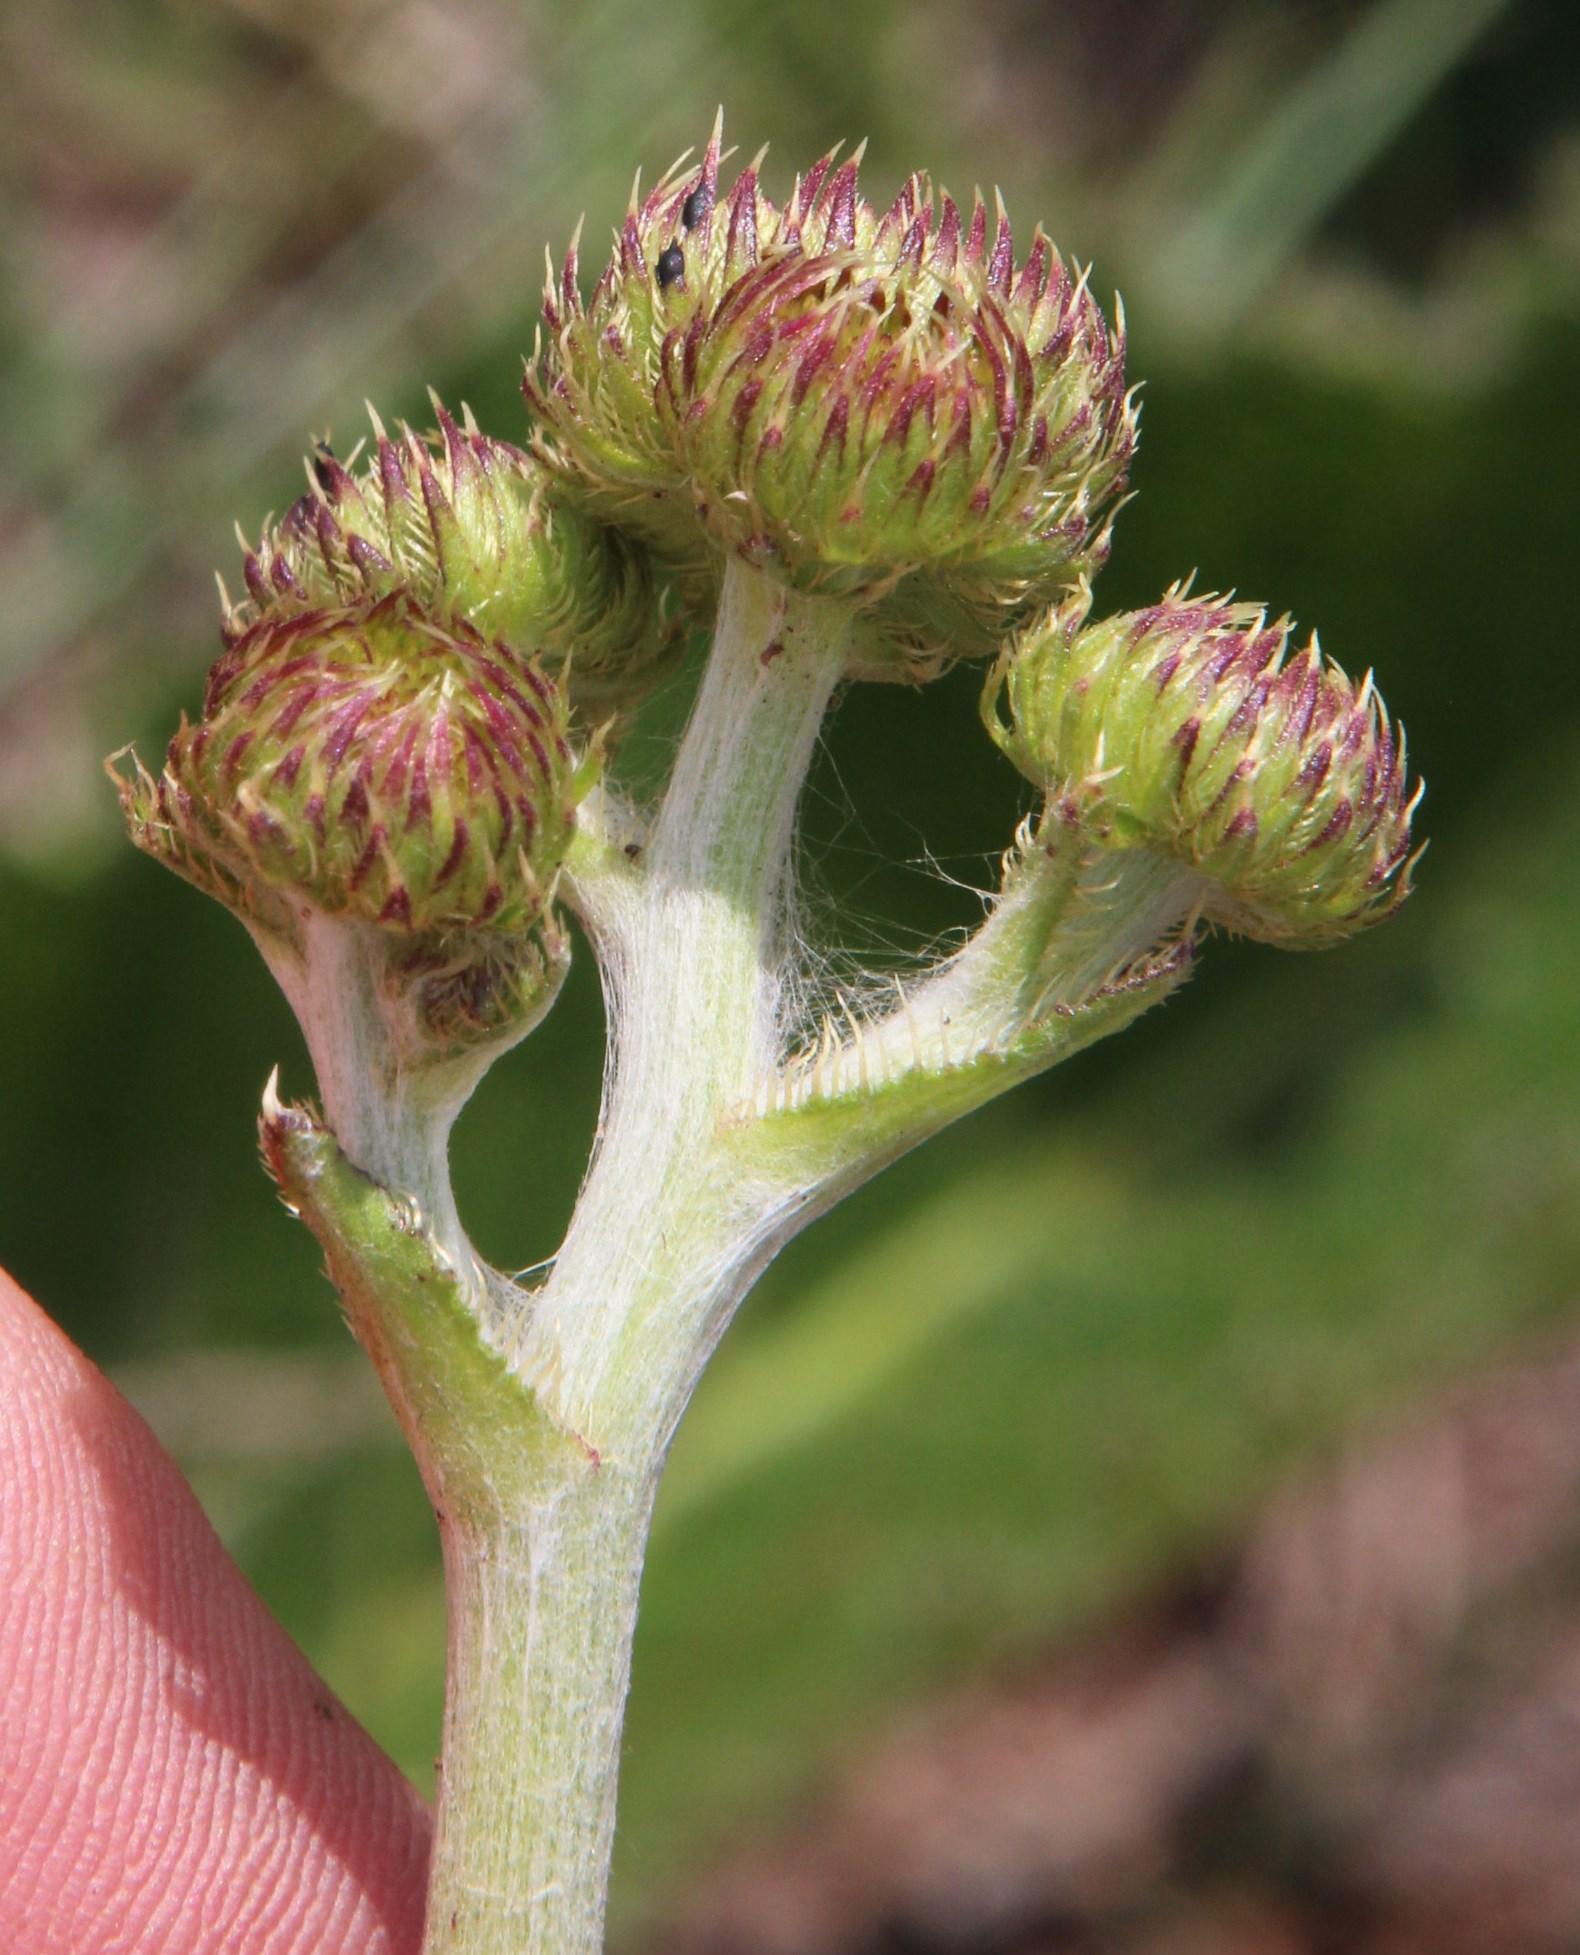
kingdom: Plantae
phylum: Tracheophyta
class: Magnoliopsida
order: Asterales
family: Asteraceae
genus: Berkheya
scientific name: Berkheya setifera
